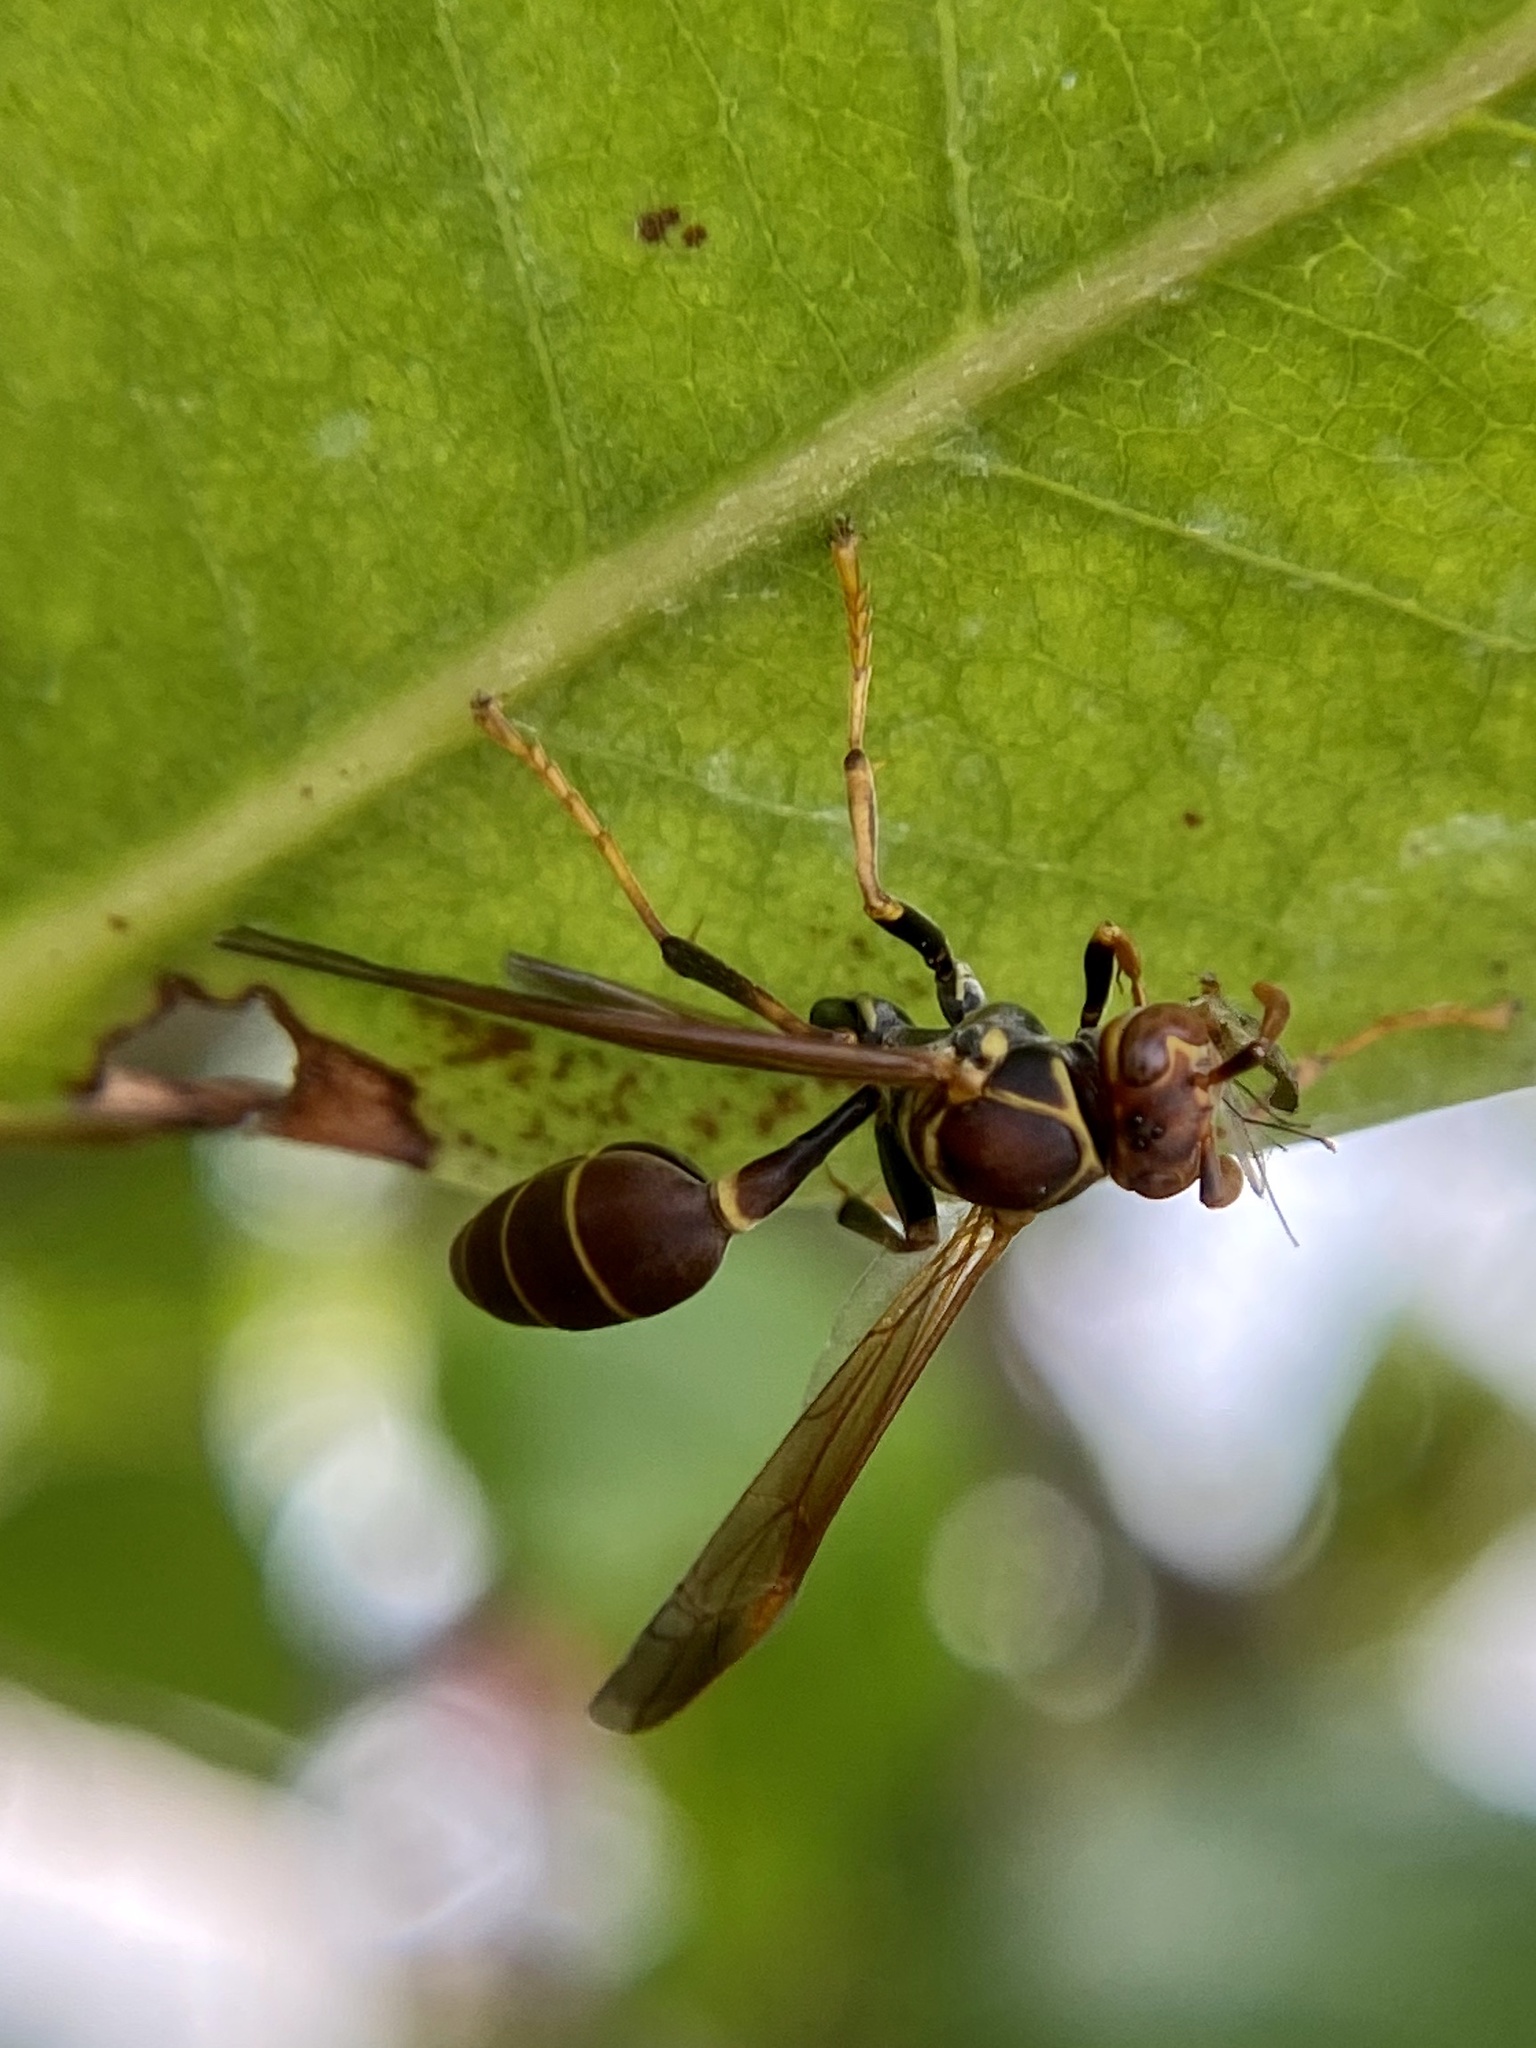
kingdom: Animalia
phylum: Arthropoda
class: Insecta
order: Hymenoptera
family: Vespidae
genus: Mischocyttarus
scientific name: Mischocyttarus mexicanus
